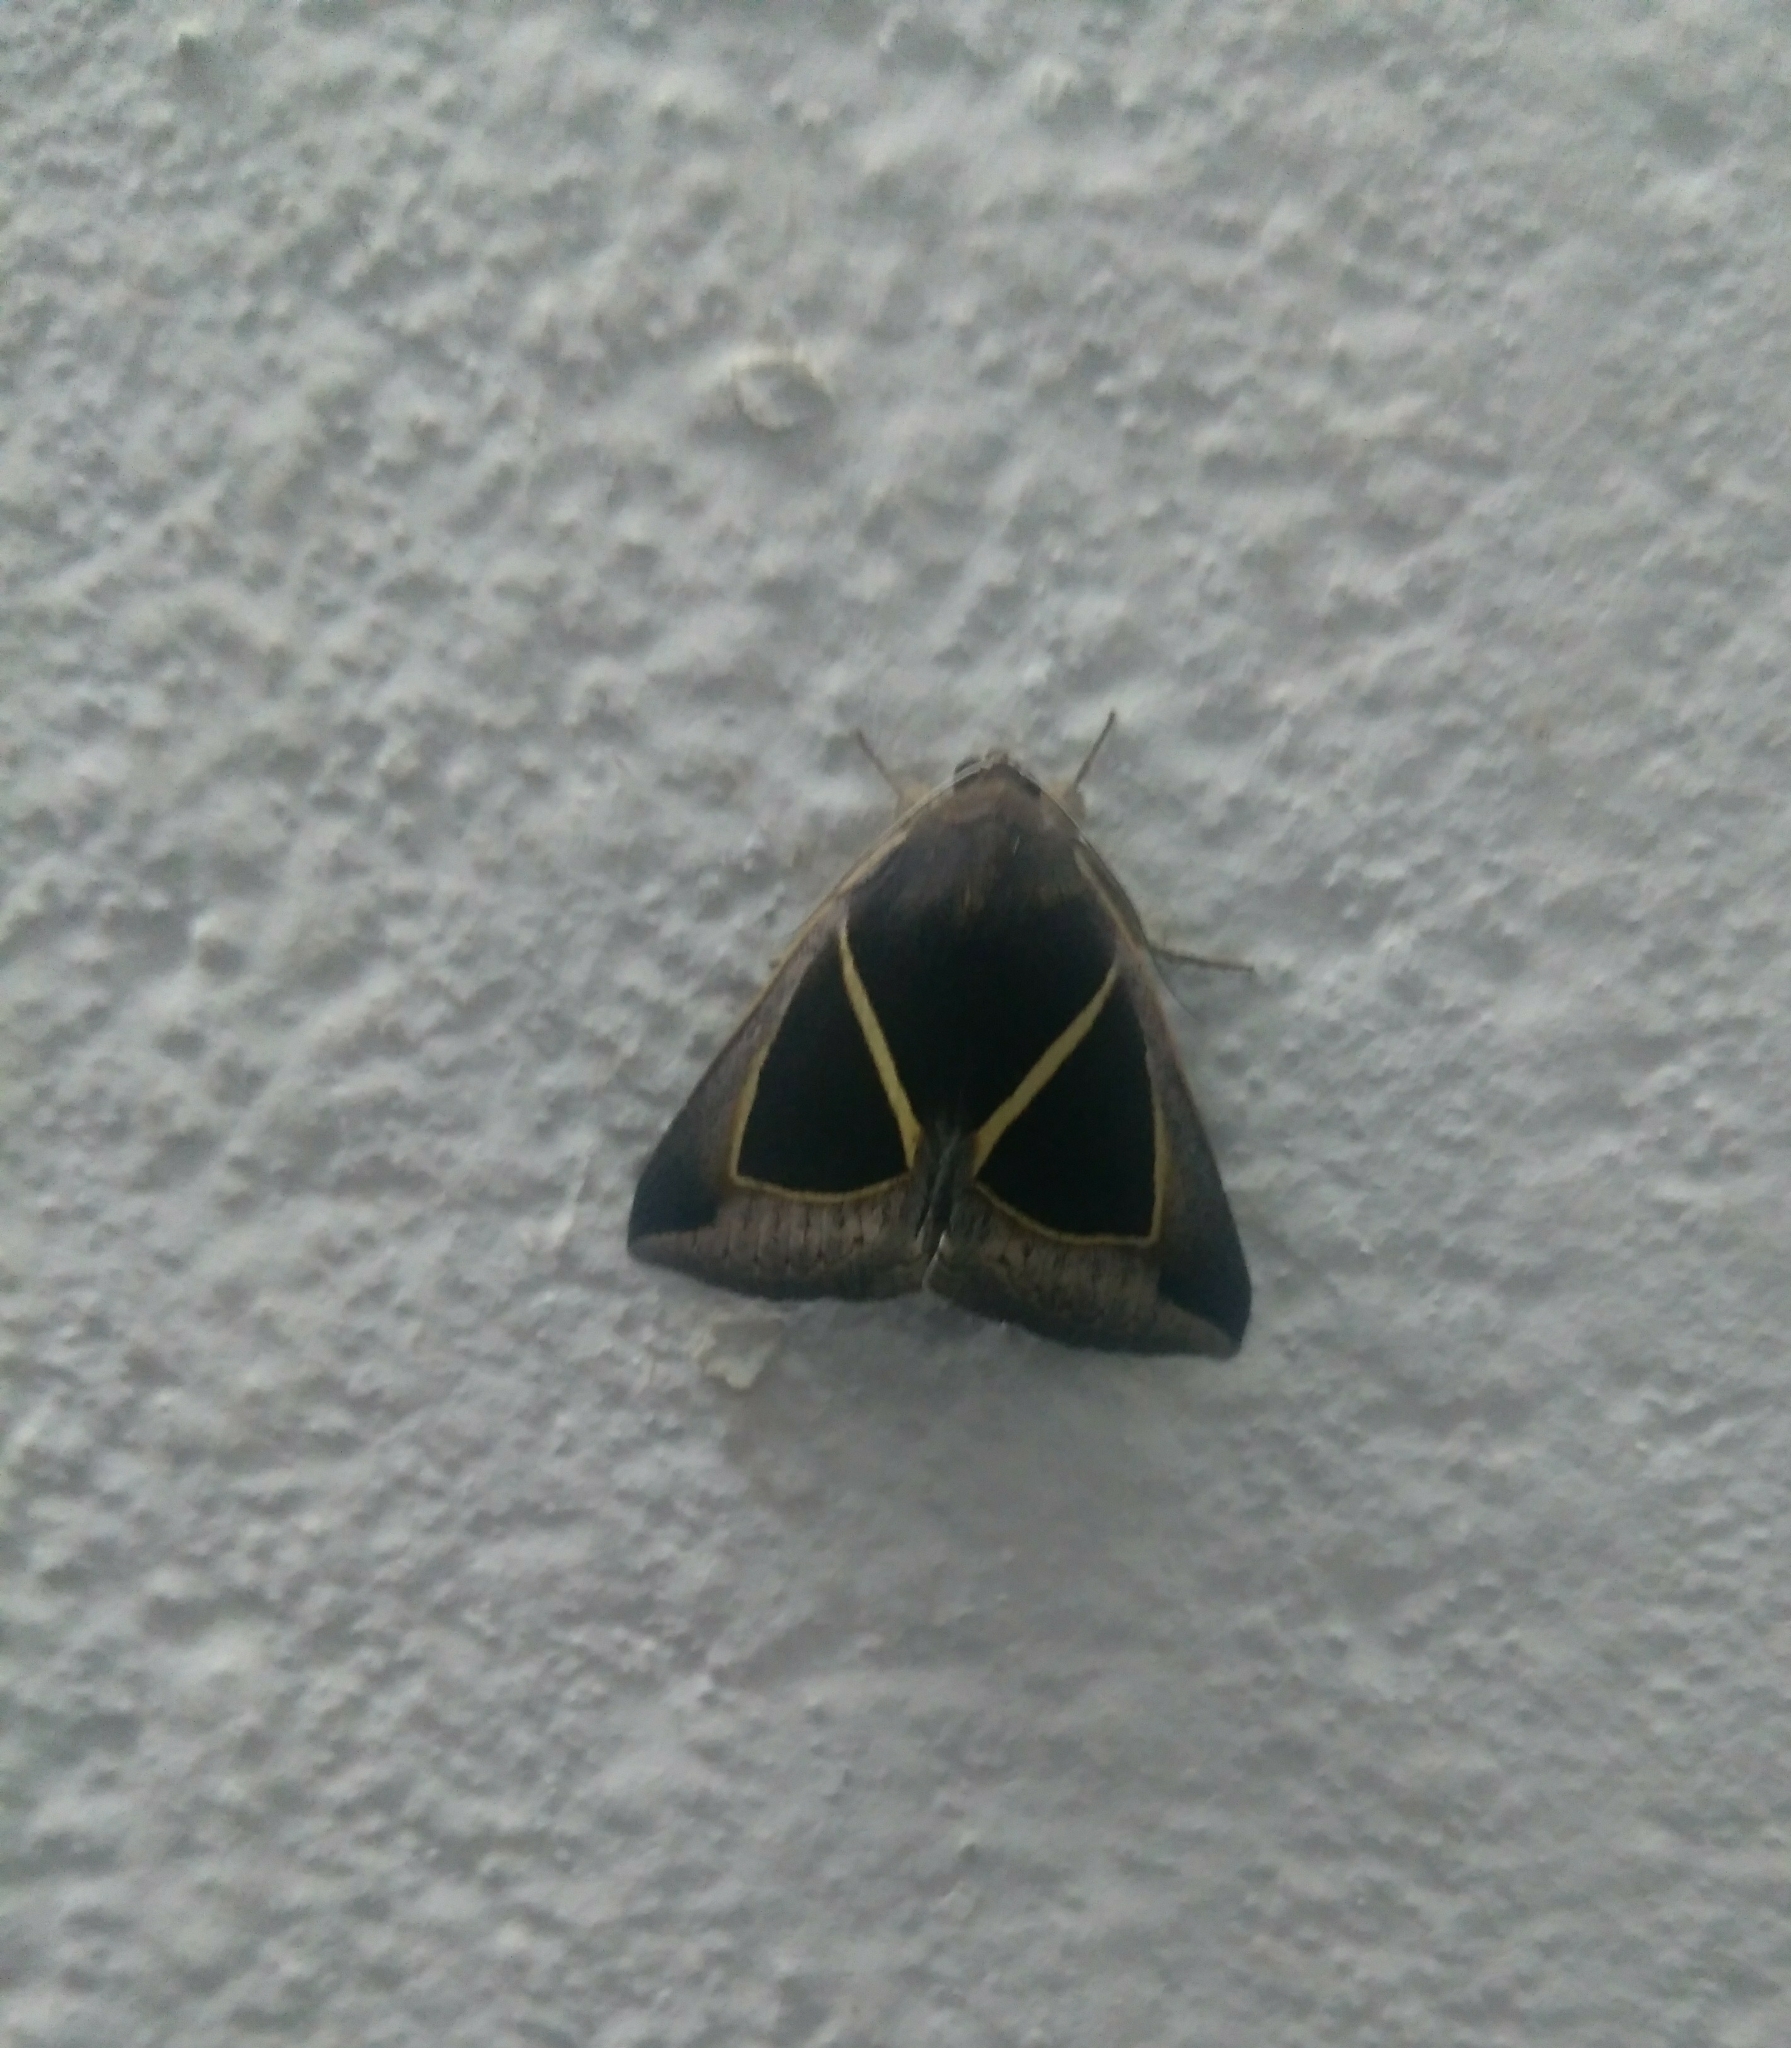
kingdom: Animalia
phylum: Arthropoda
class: Insecta
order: Lepidoptera
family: Erebidae
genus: Chalciope
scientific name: Chalciope mygdon
